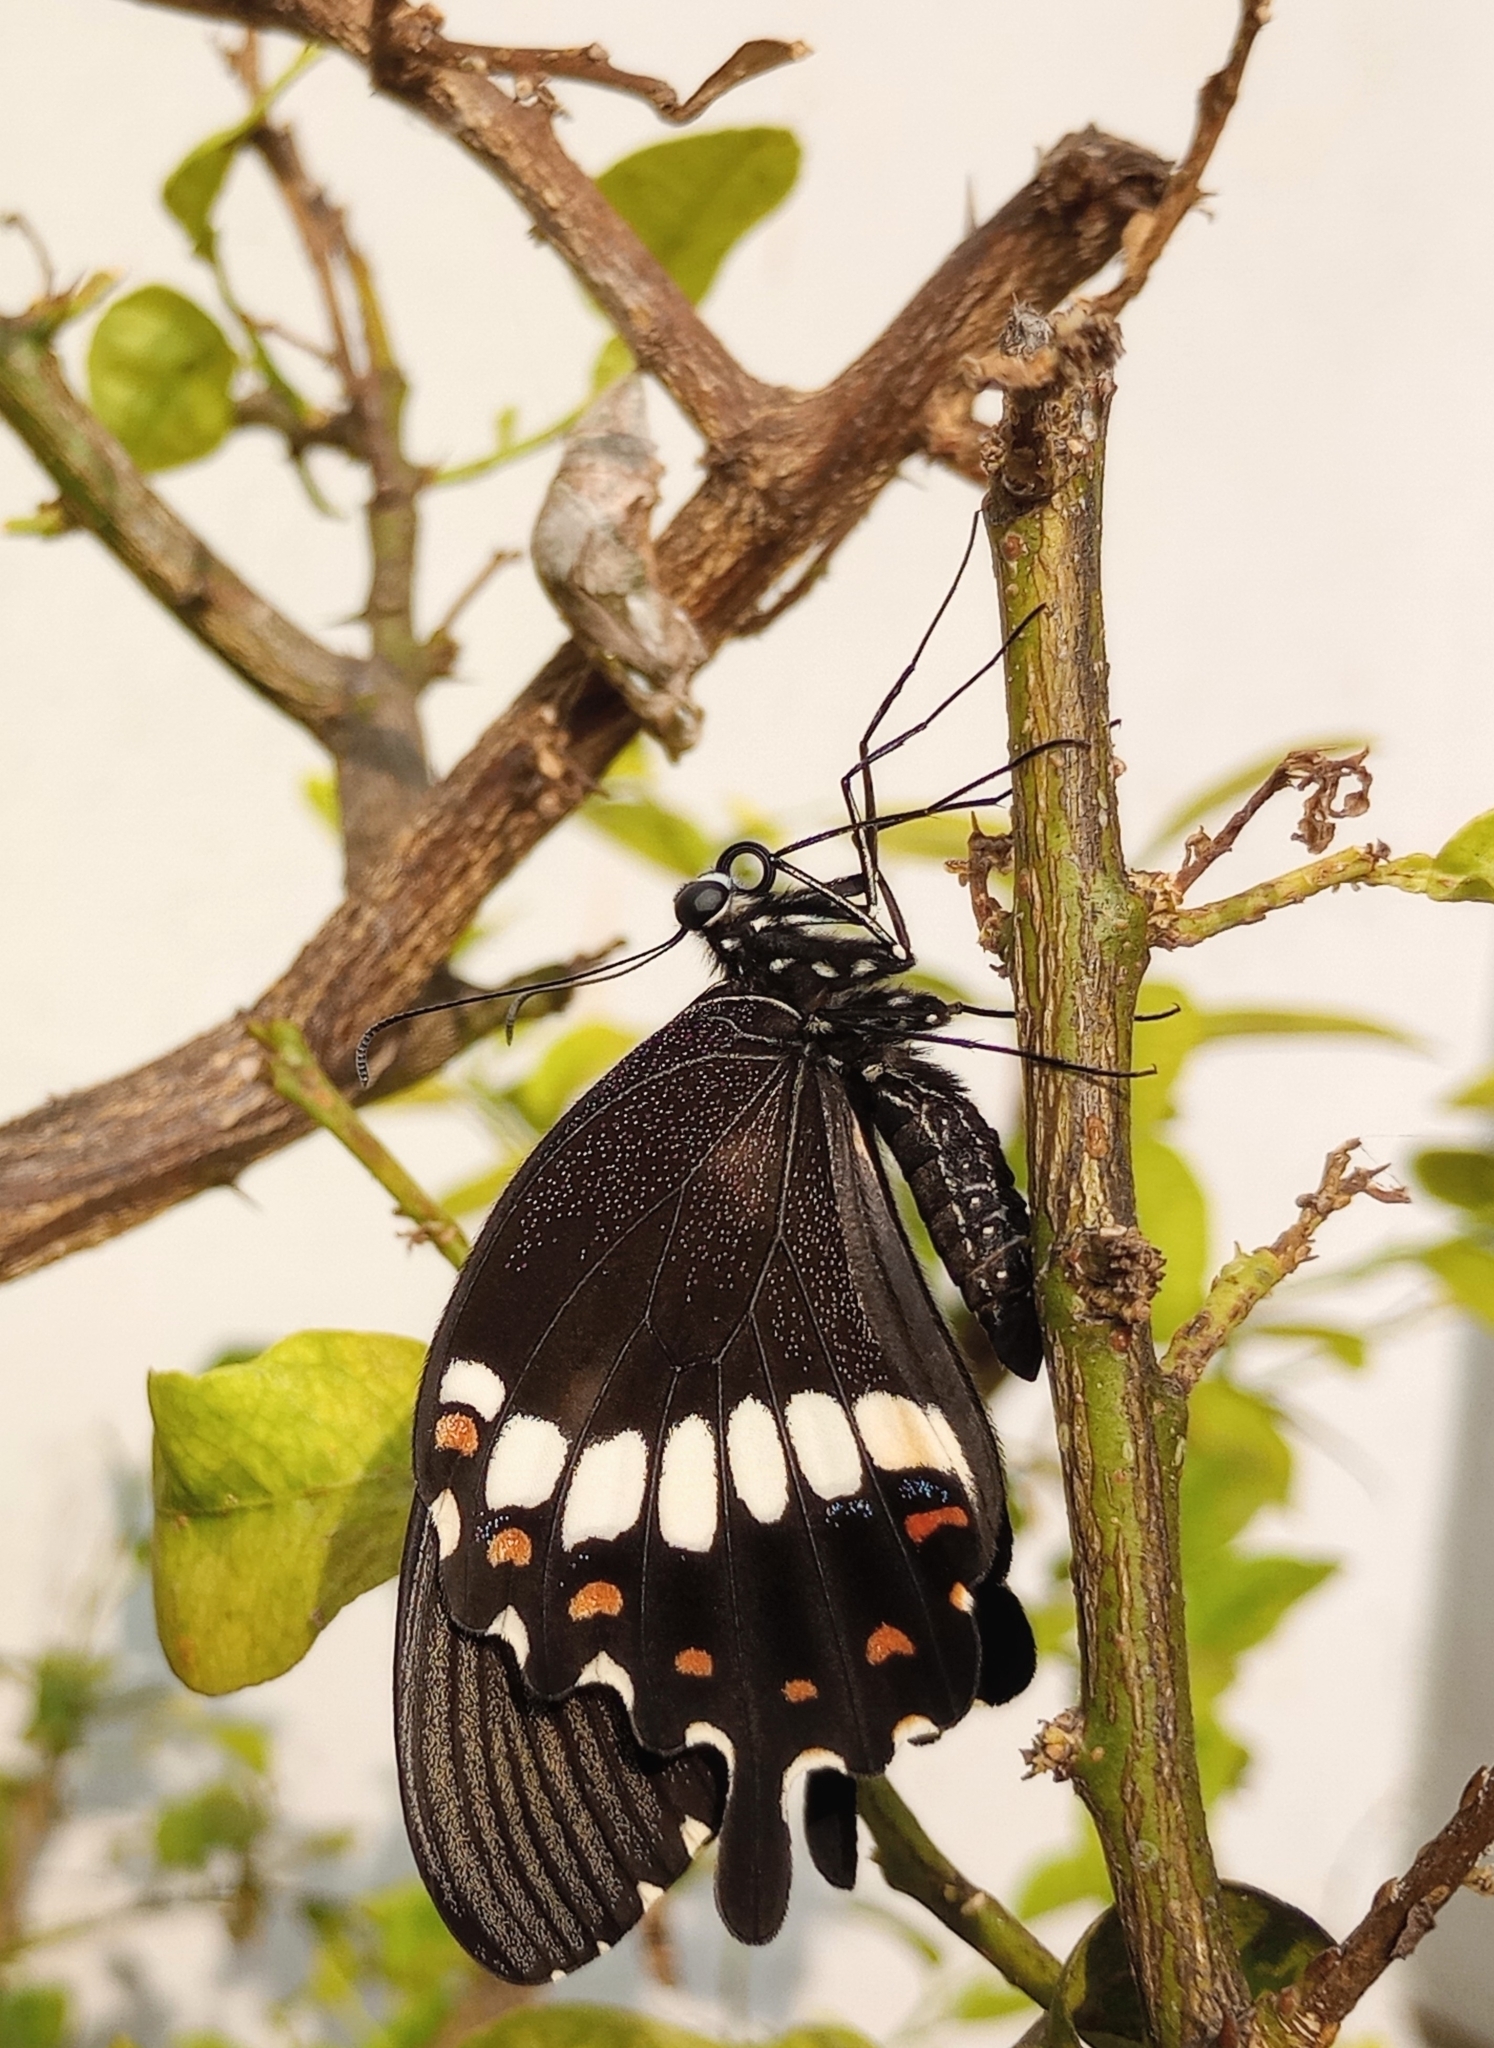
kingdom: Animalia
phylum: Arthropoda
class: Insecta
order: Lepidoptera
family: Papilionidae
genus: Papilio
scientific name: Papilio polytes
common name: Common mormon
